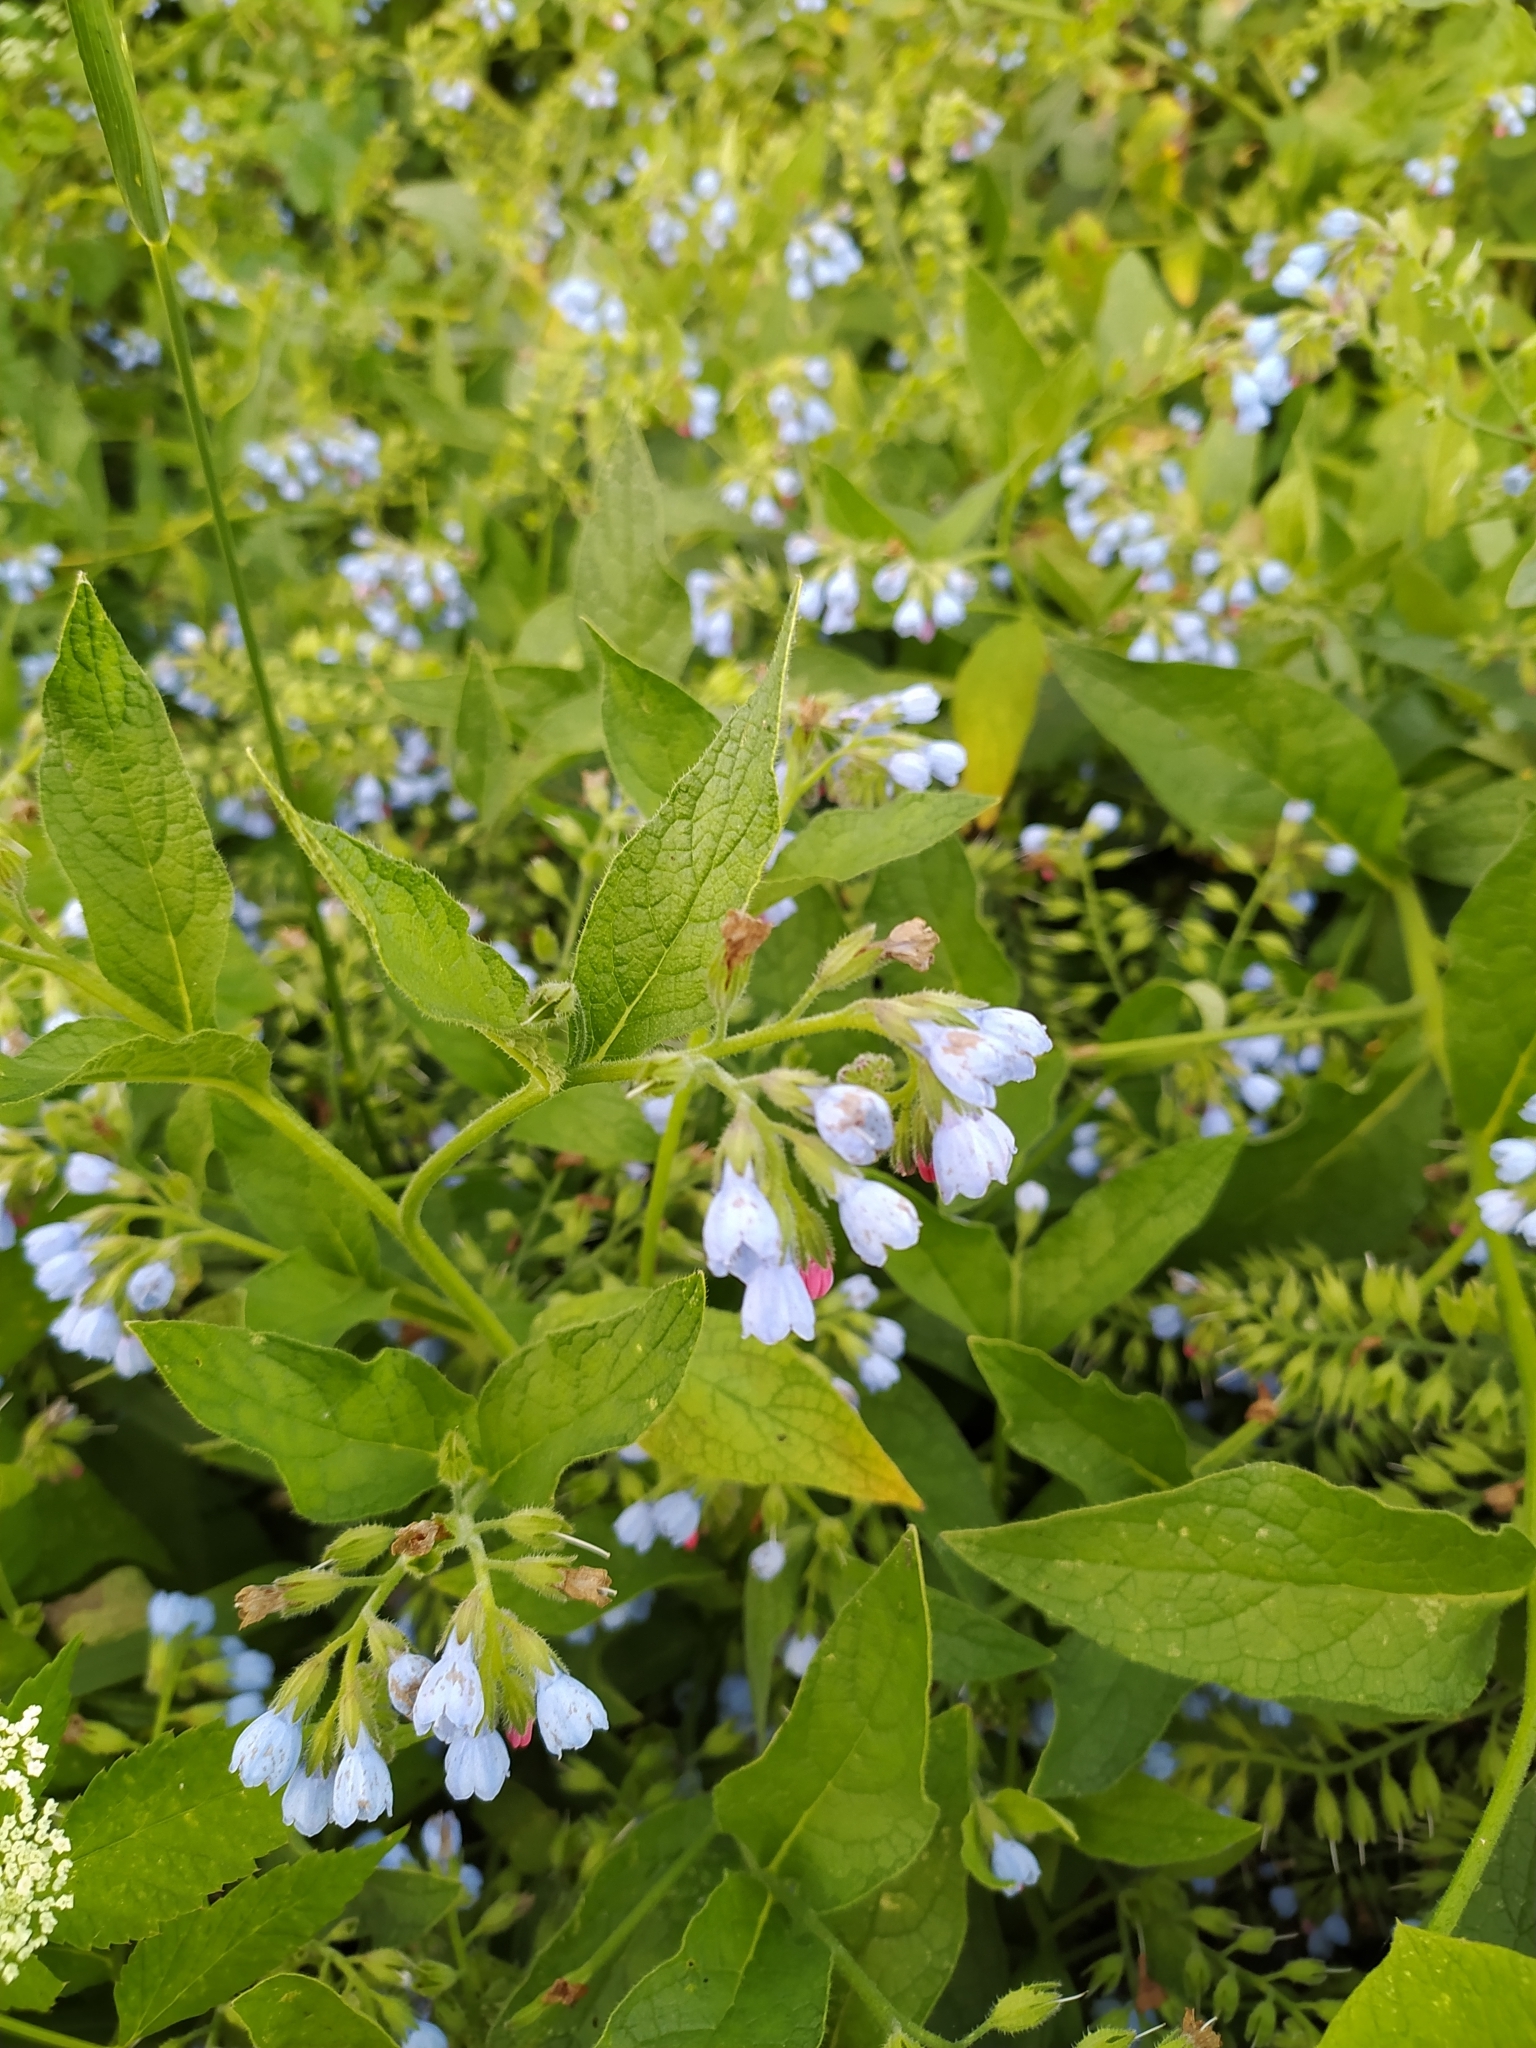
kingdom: Plantae
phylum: Tracheophyta
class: Magnoliopsida
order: Boraginales
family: Boraginaceae
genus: Symphytum
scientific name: Symphytum caucasicum
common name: Caucasian comfrey
